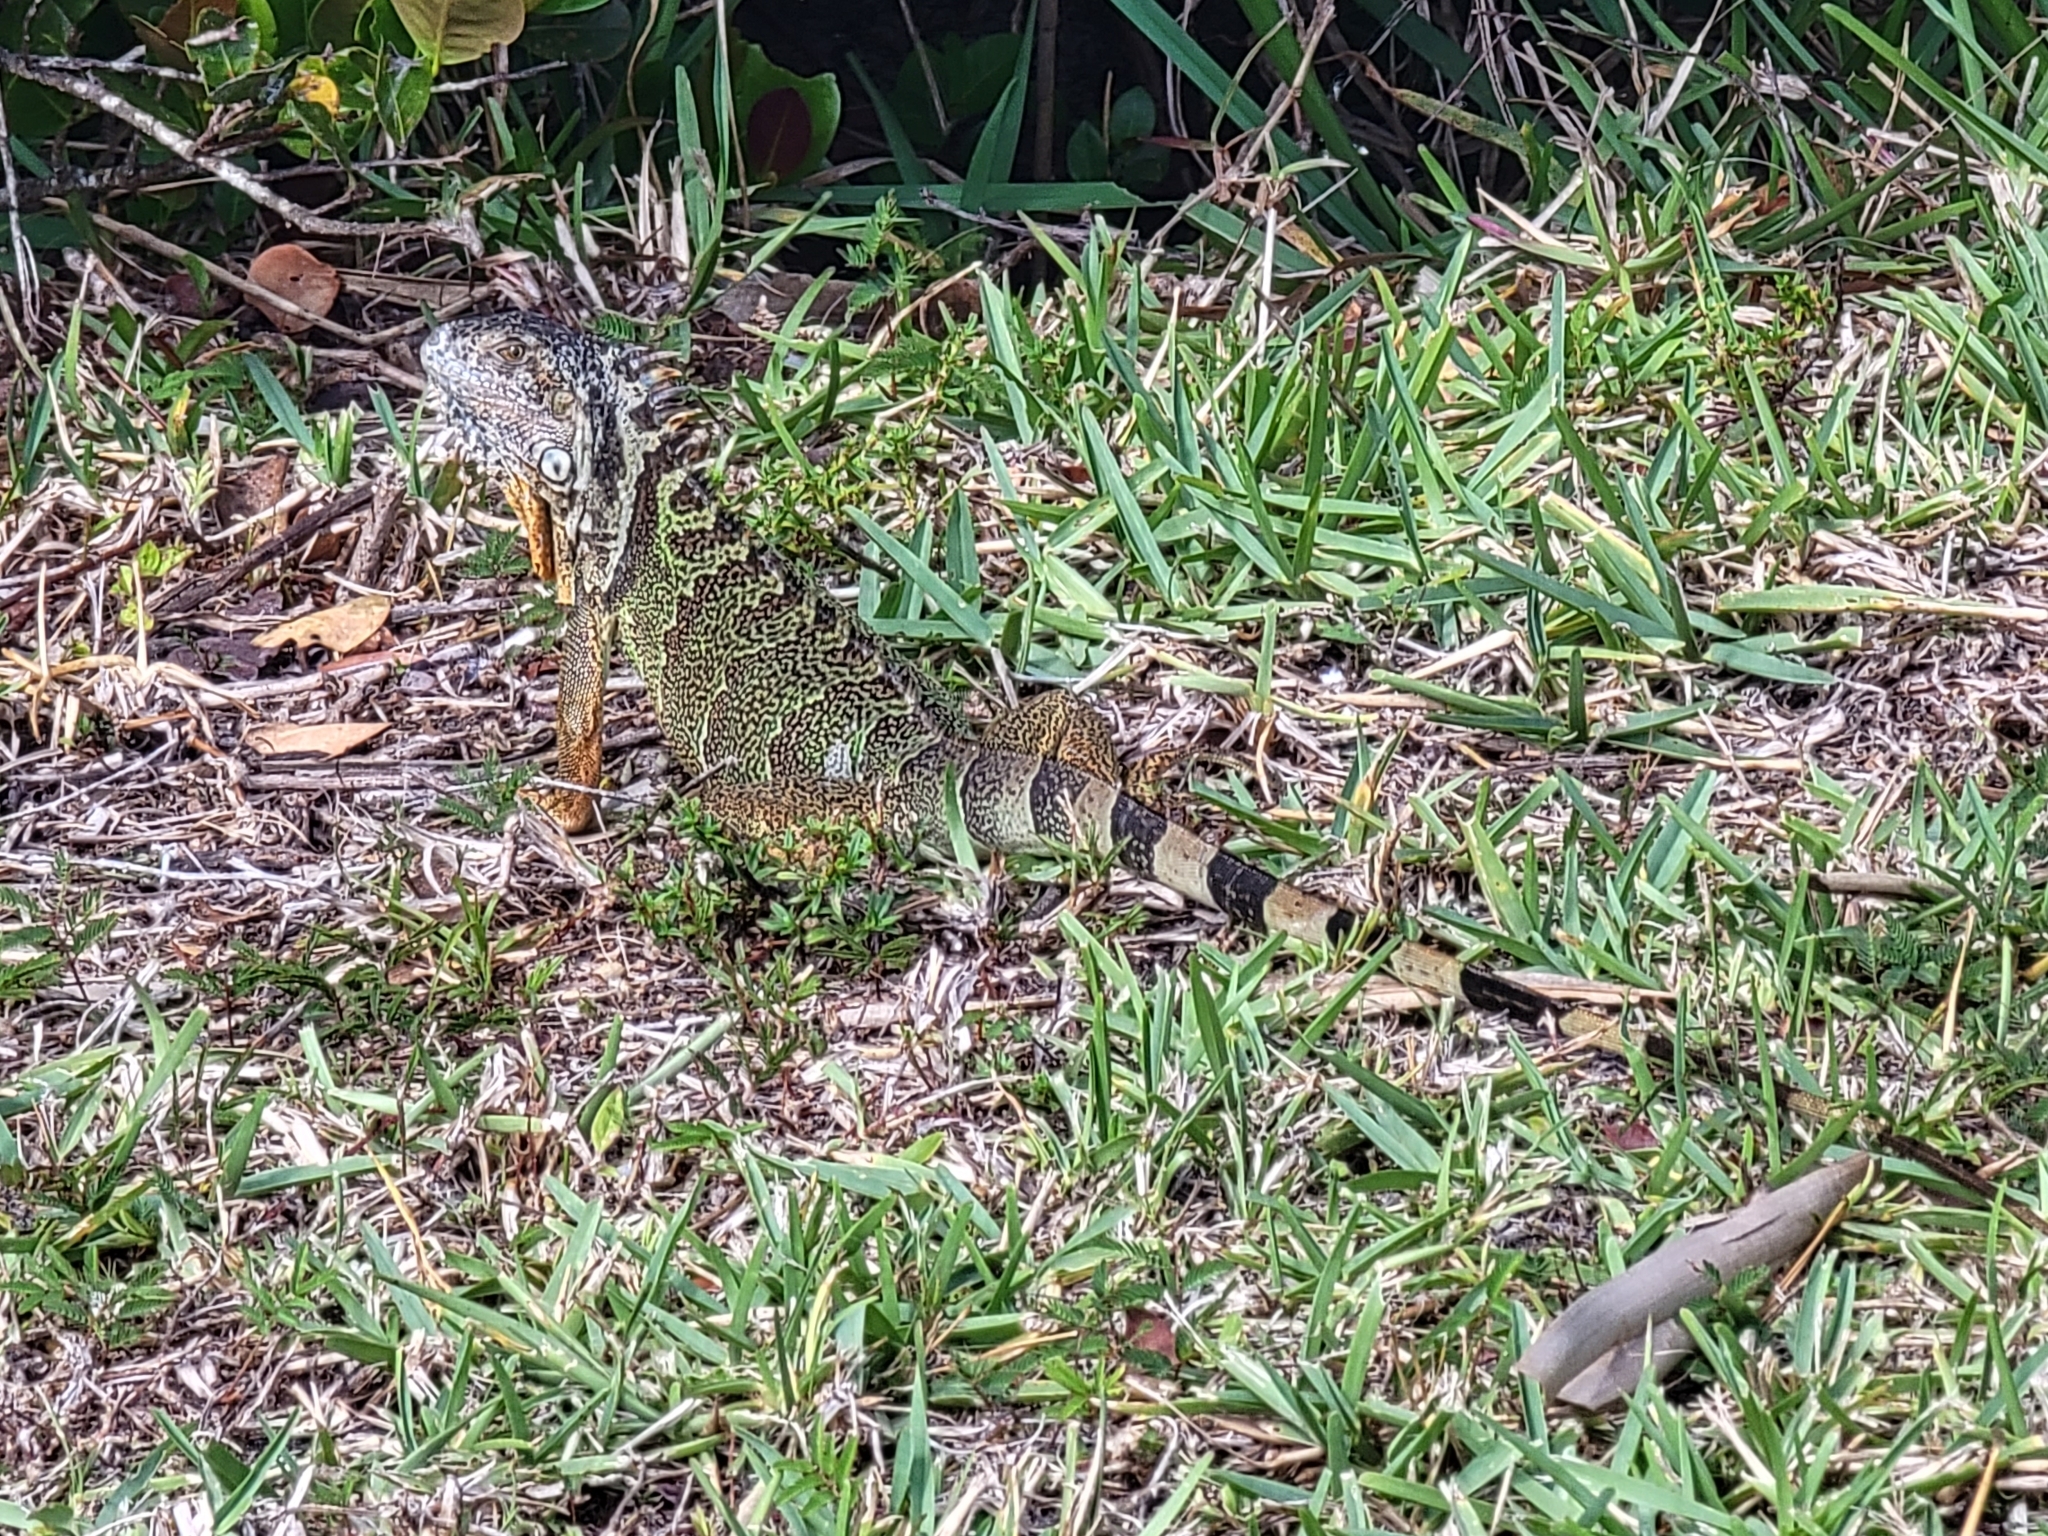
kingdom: Animalia
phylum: Chordata
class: Squamata
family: Iguanidae
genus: Iguana
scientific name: Iguana iguana
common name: Green iguana
